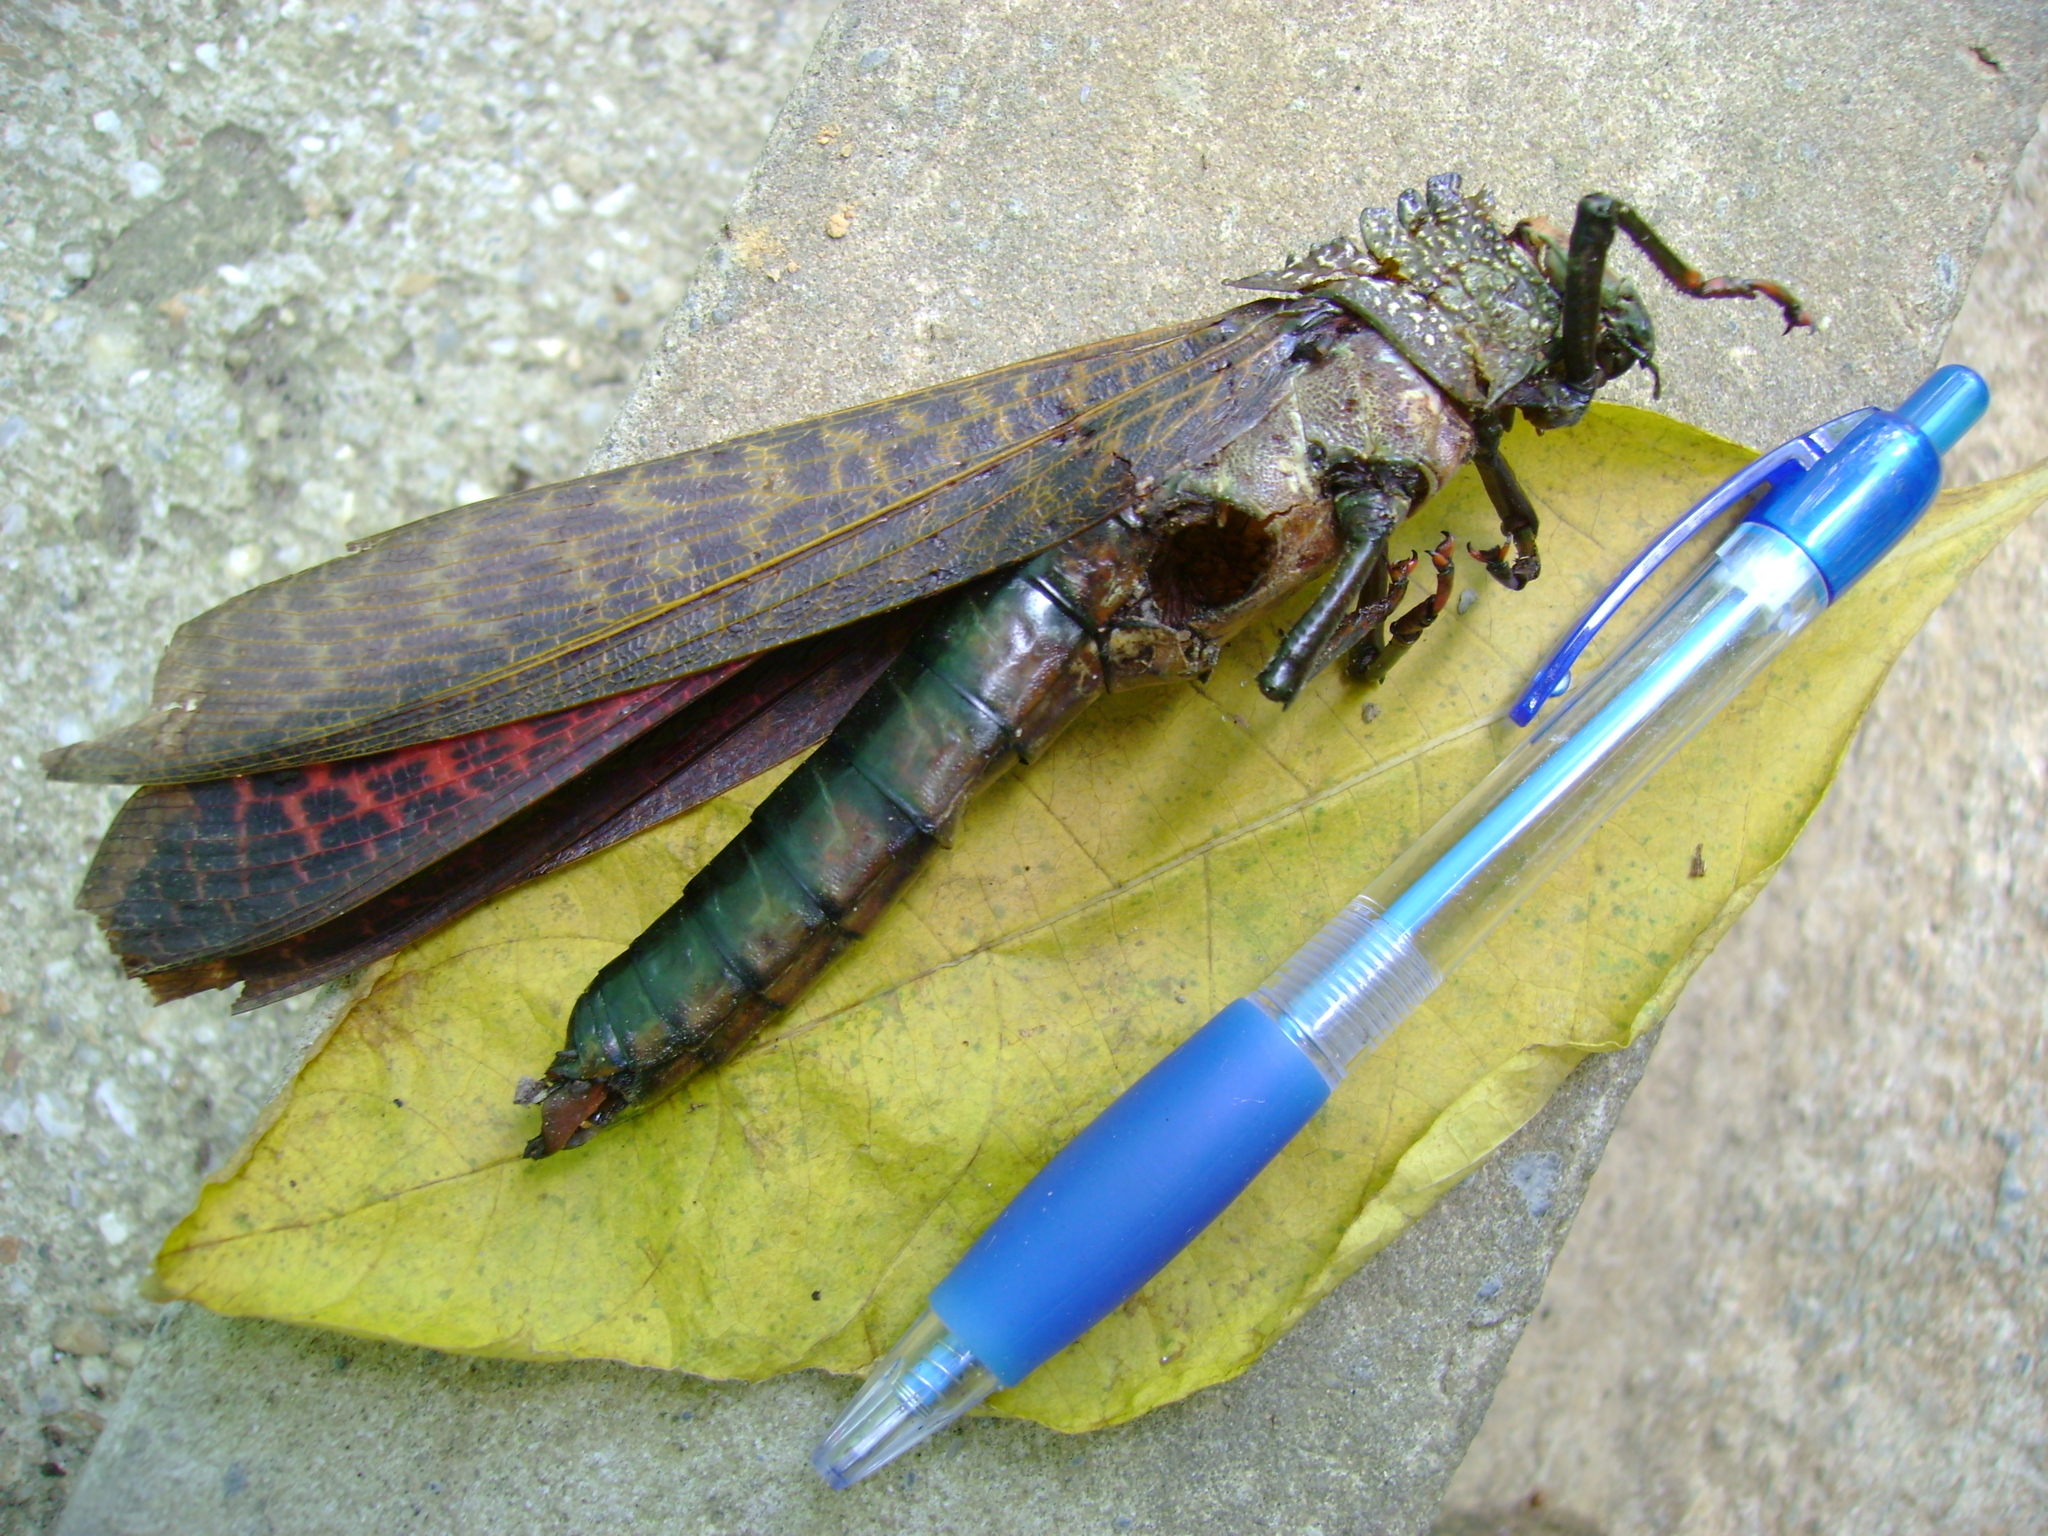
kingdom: Animalia
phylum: Arthropoda
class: Insecta
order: Orthoptera
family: Romaleidae
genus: Tropidacris
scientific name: Tropidacris cristata
